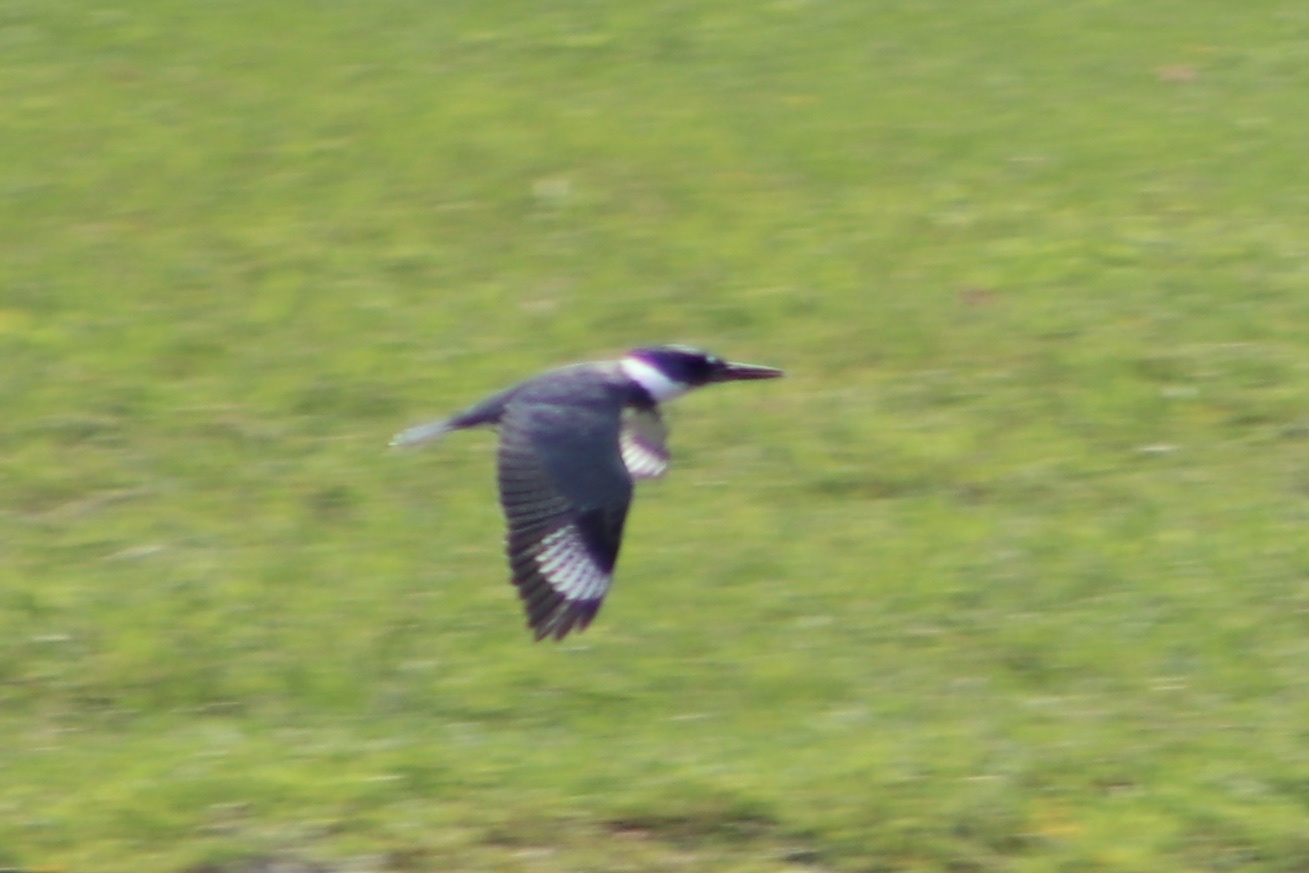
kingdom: Animalia
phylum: Chordata
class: Aves
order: Coraciiformes
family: Alcedinidae
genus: Megaceryle
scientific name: Megaceryle alcyon
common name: Belted kingfisher
